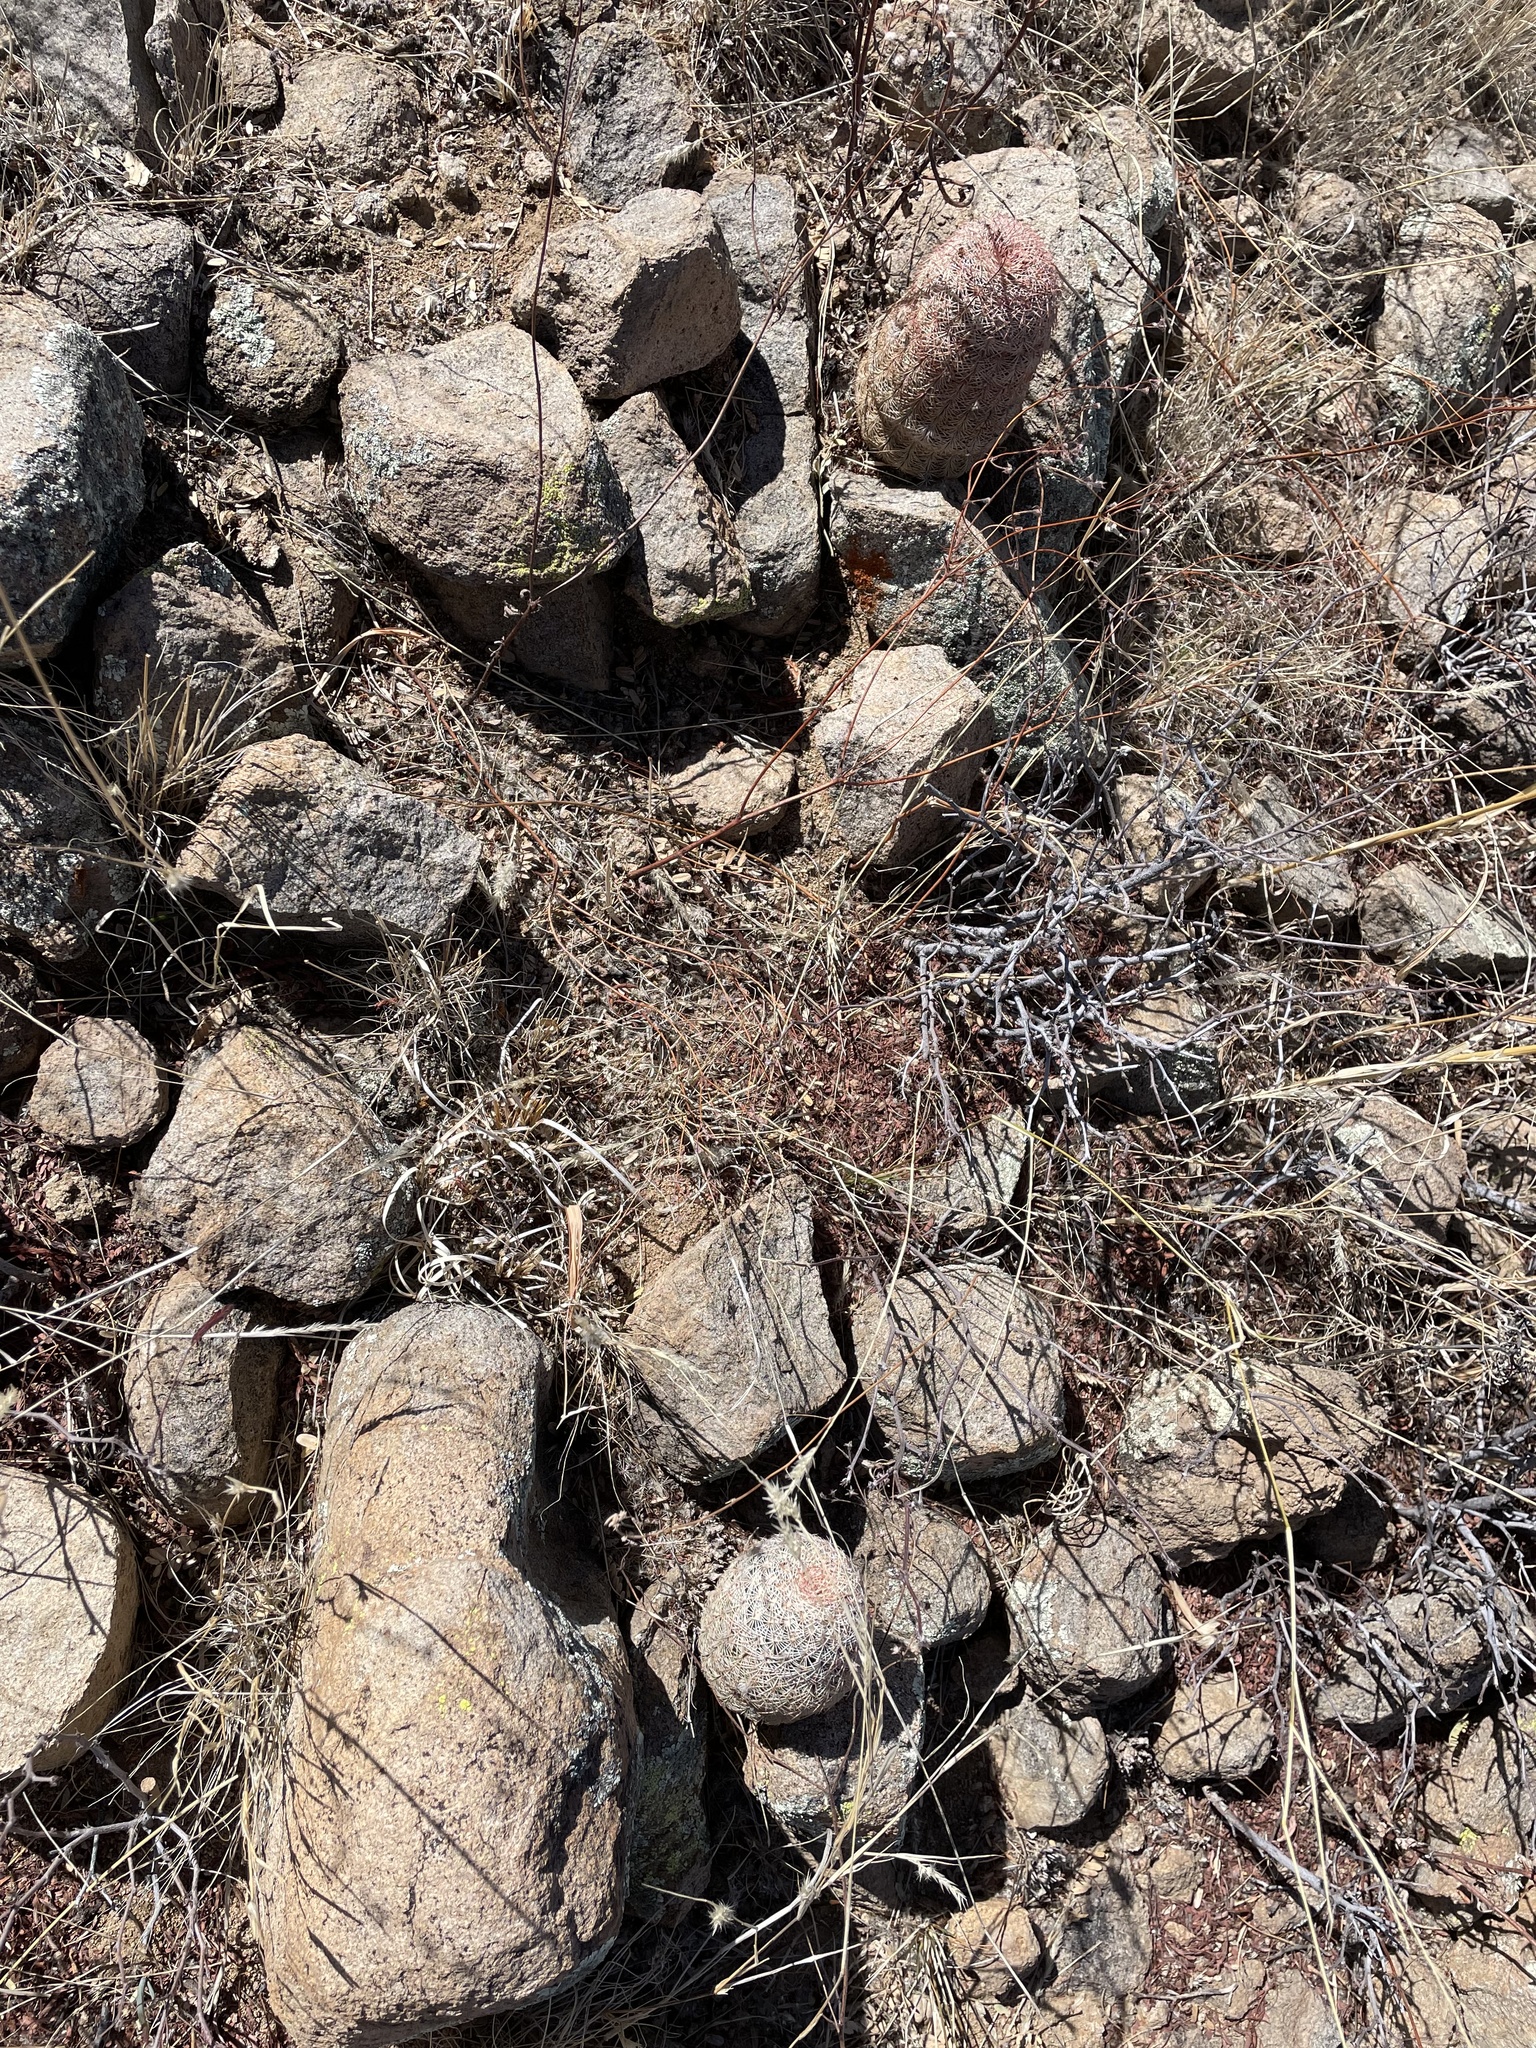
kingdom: Plantae
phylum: Tracheophyta
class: Magnoliopsida
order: Caryophyllales
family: Cactaceae
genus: Echinocereus
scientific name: Echinocereus rigidissimus
